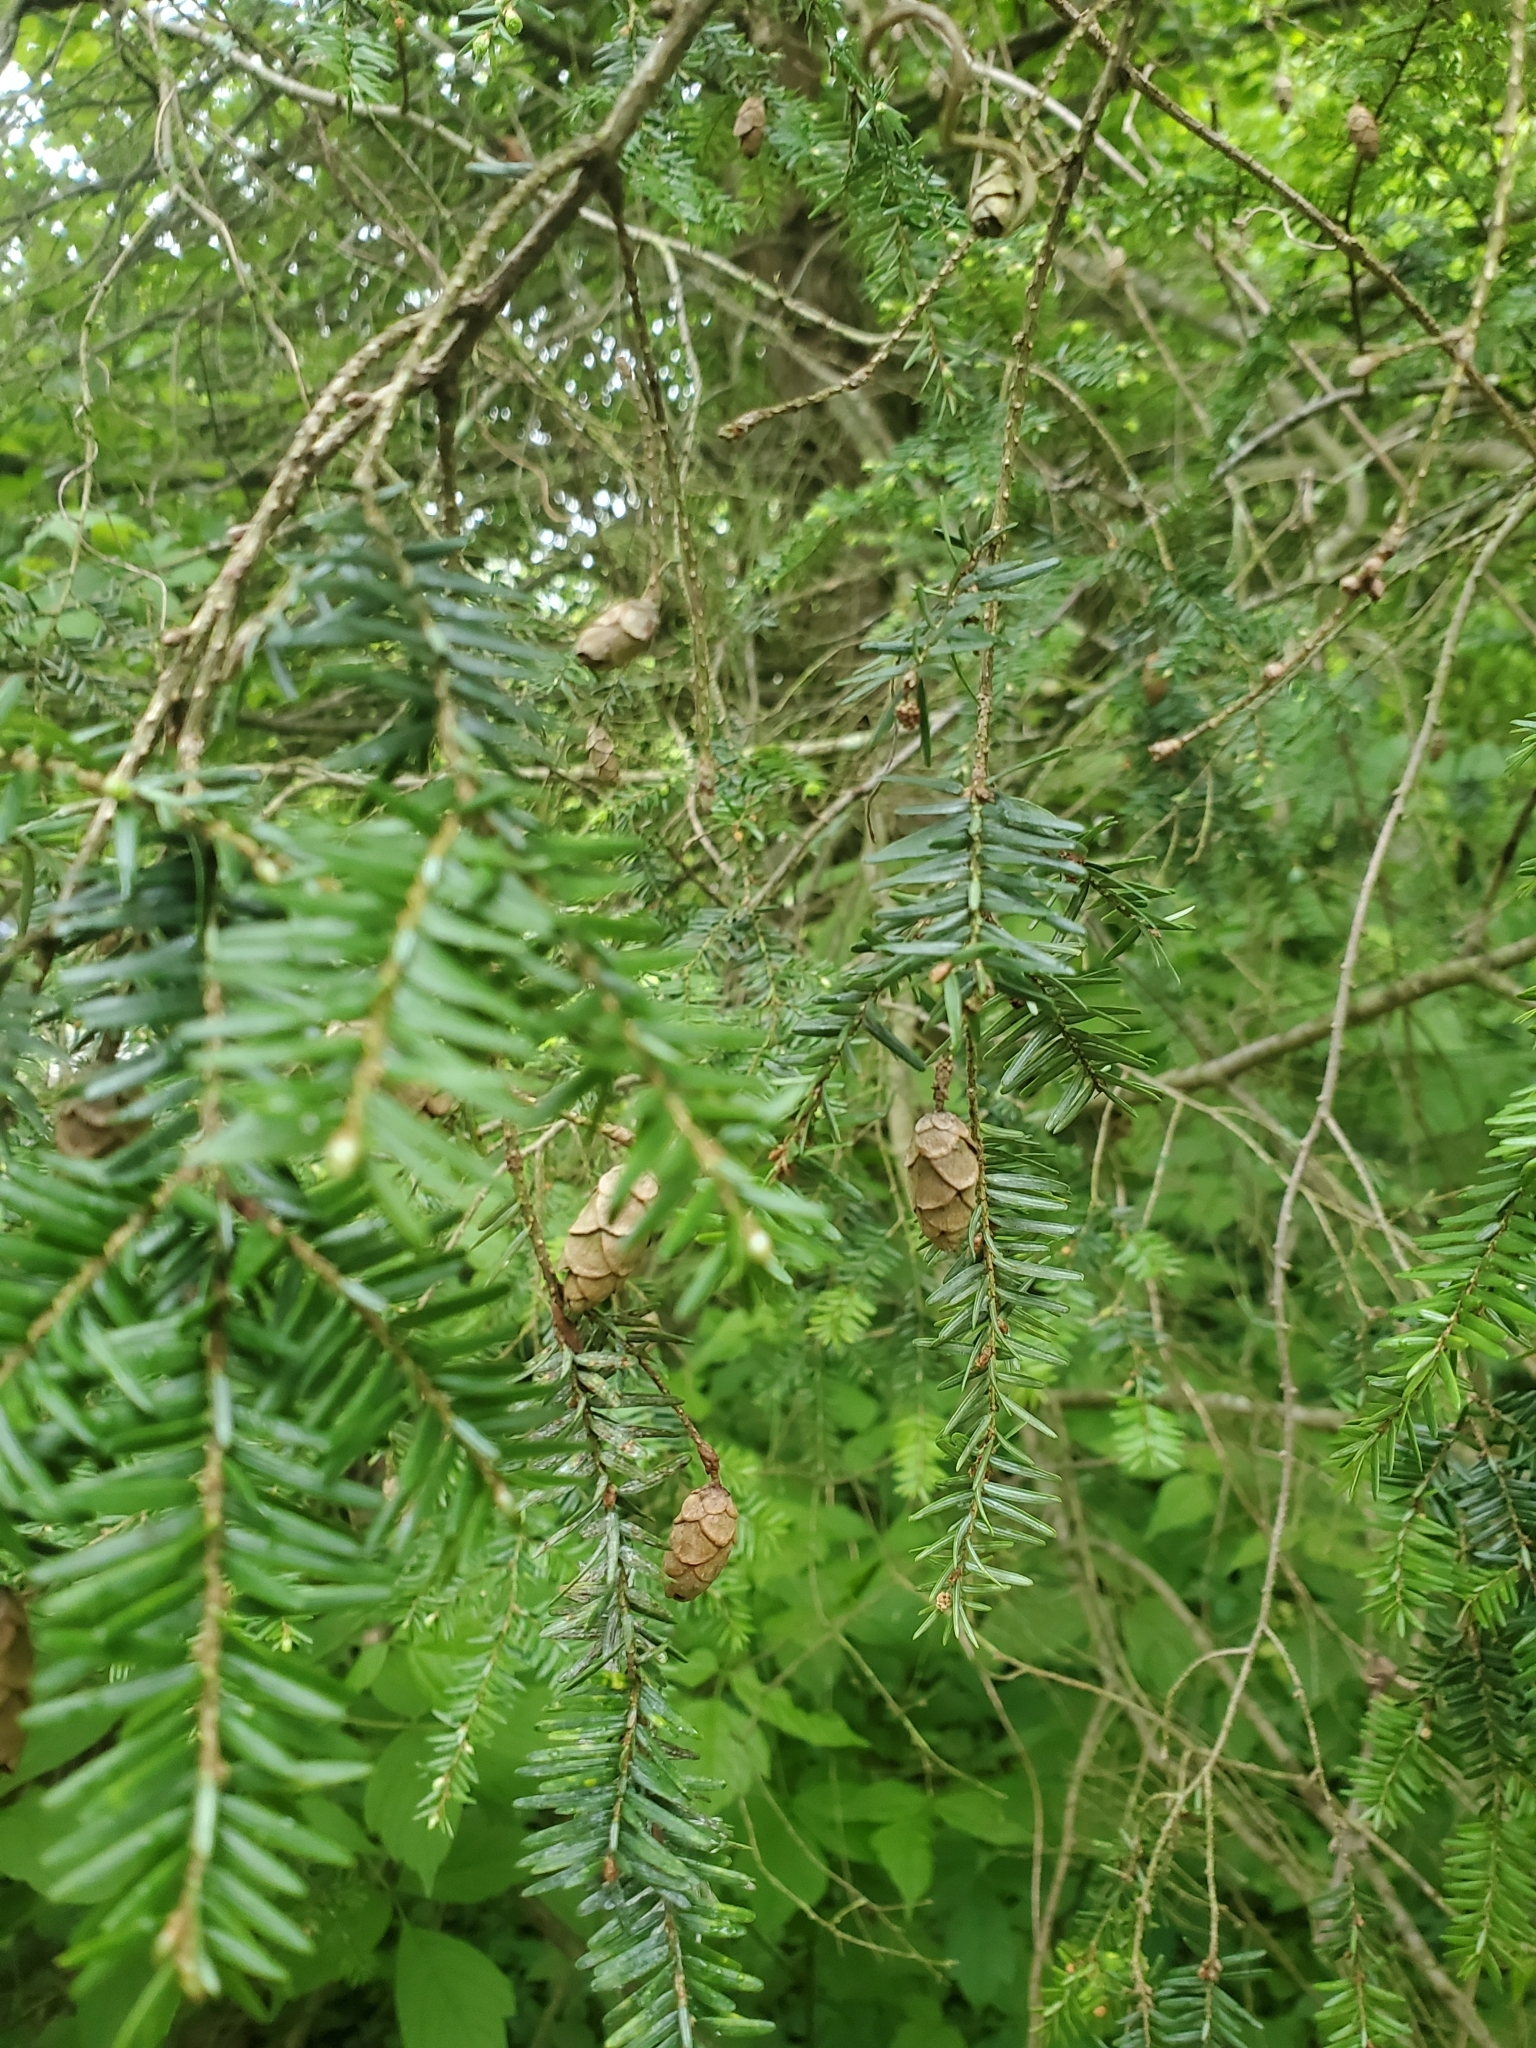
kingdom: Plantae
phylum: Tracheophyta
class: Pinopsida
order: Pinales
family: Pinaceae
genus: Tsuga
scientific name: Tsuga canadensis
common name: Eastern hemlock
